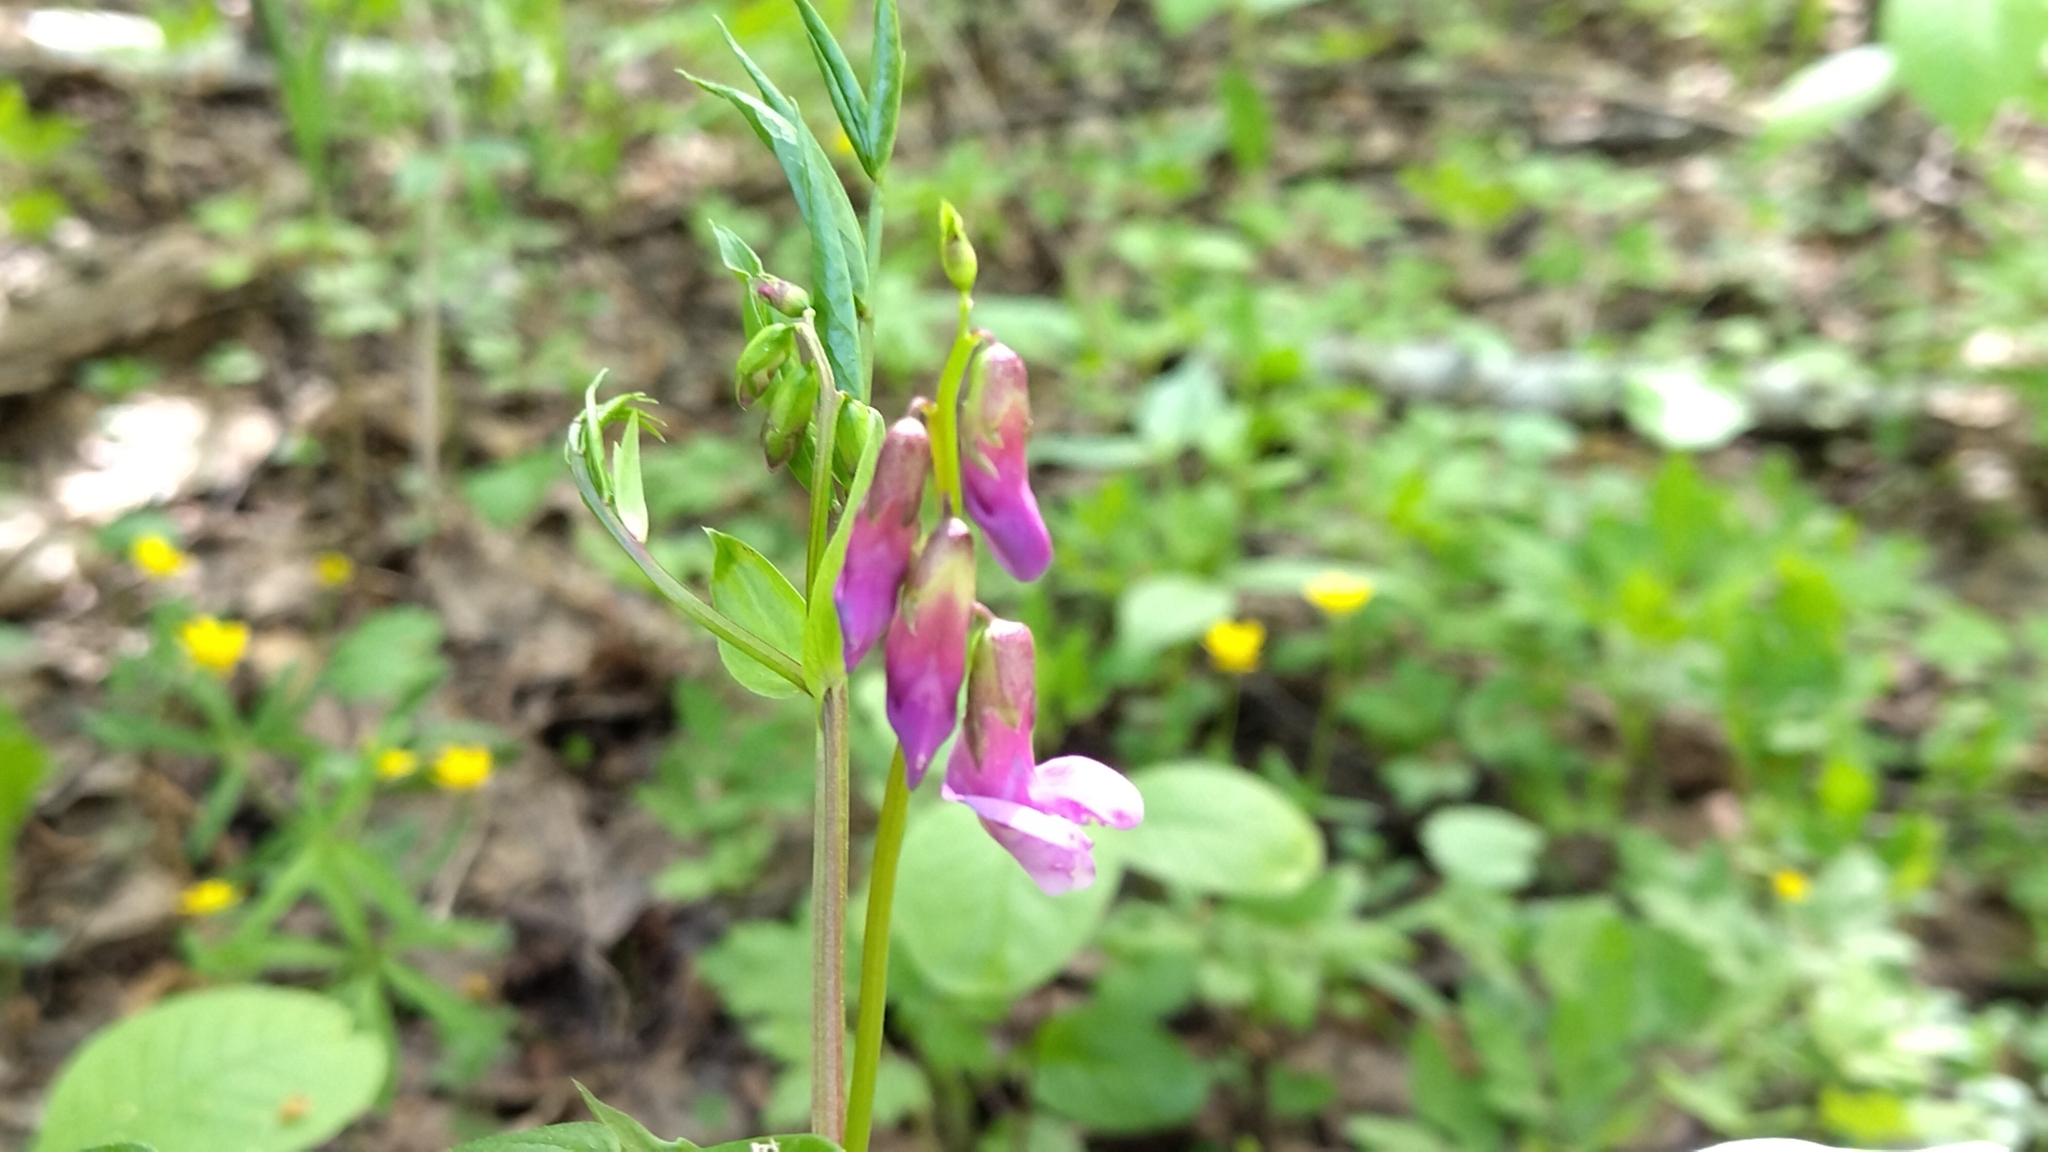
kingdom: Plantae
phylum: Tracheophyta
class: Magnoliopsida
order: Fabales
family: Fabaceae
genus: Lathyrus
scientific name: Lathyrus vernus
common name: Spring pea
